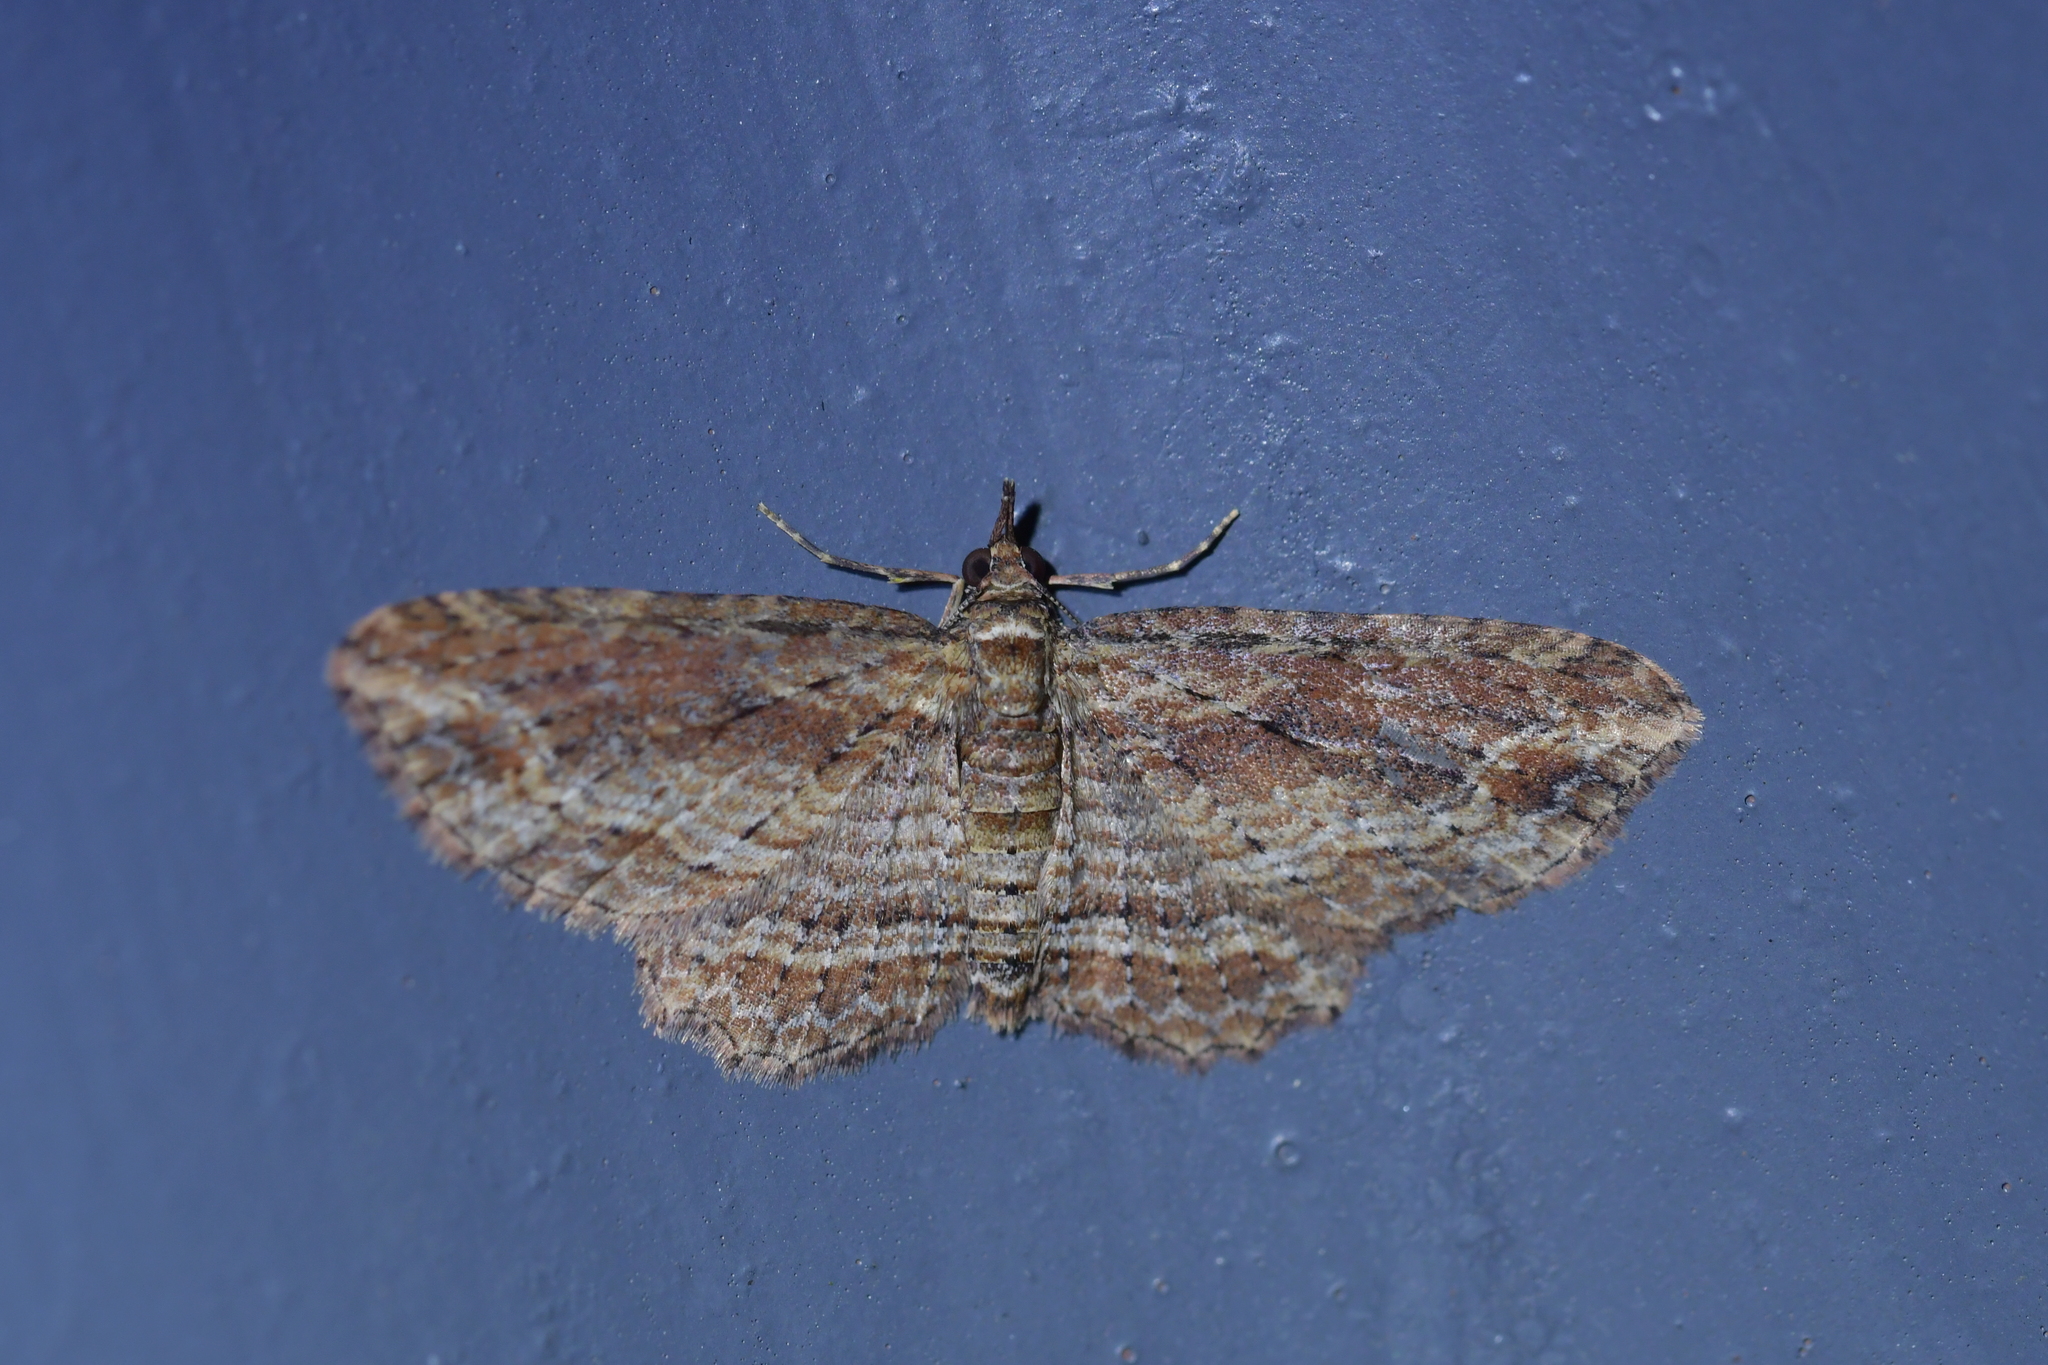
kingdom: Animalia
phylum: Arthropoda
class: Insecta
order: Lepidoptera
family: Geometridae
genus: Chloroclystis
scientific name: Chloroclystis filata
